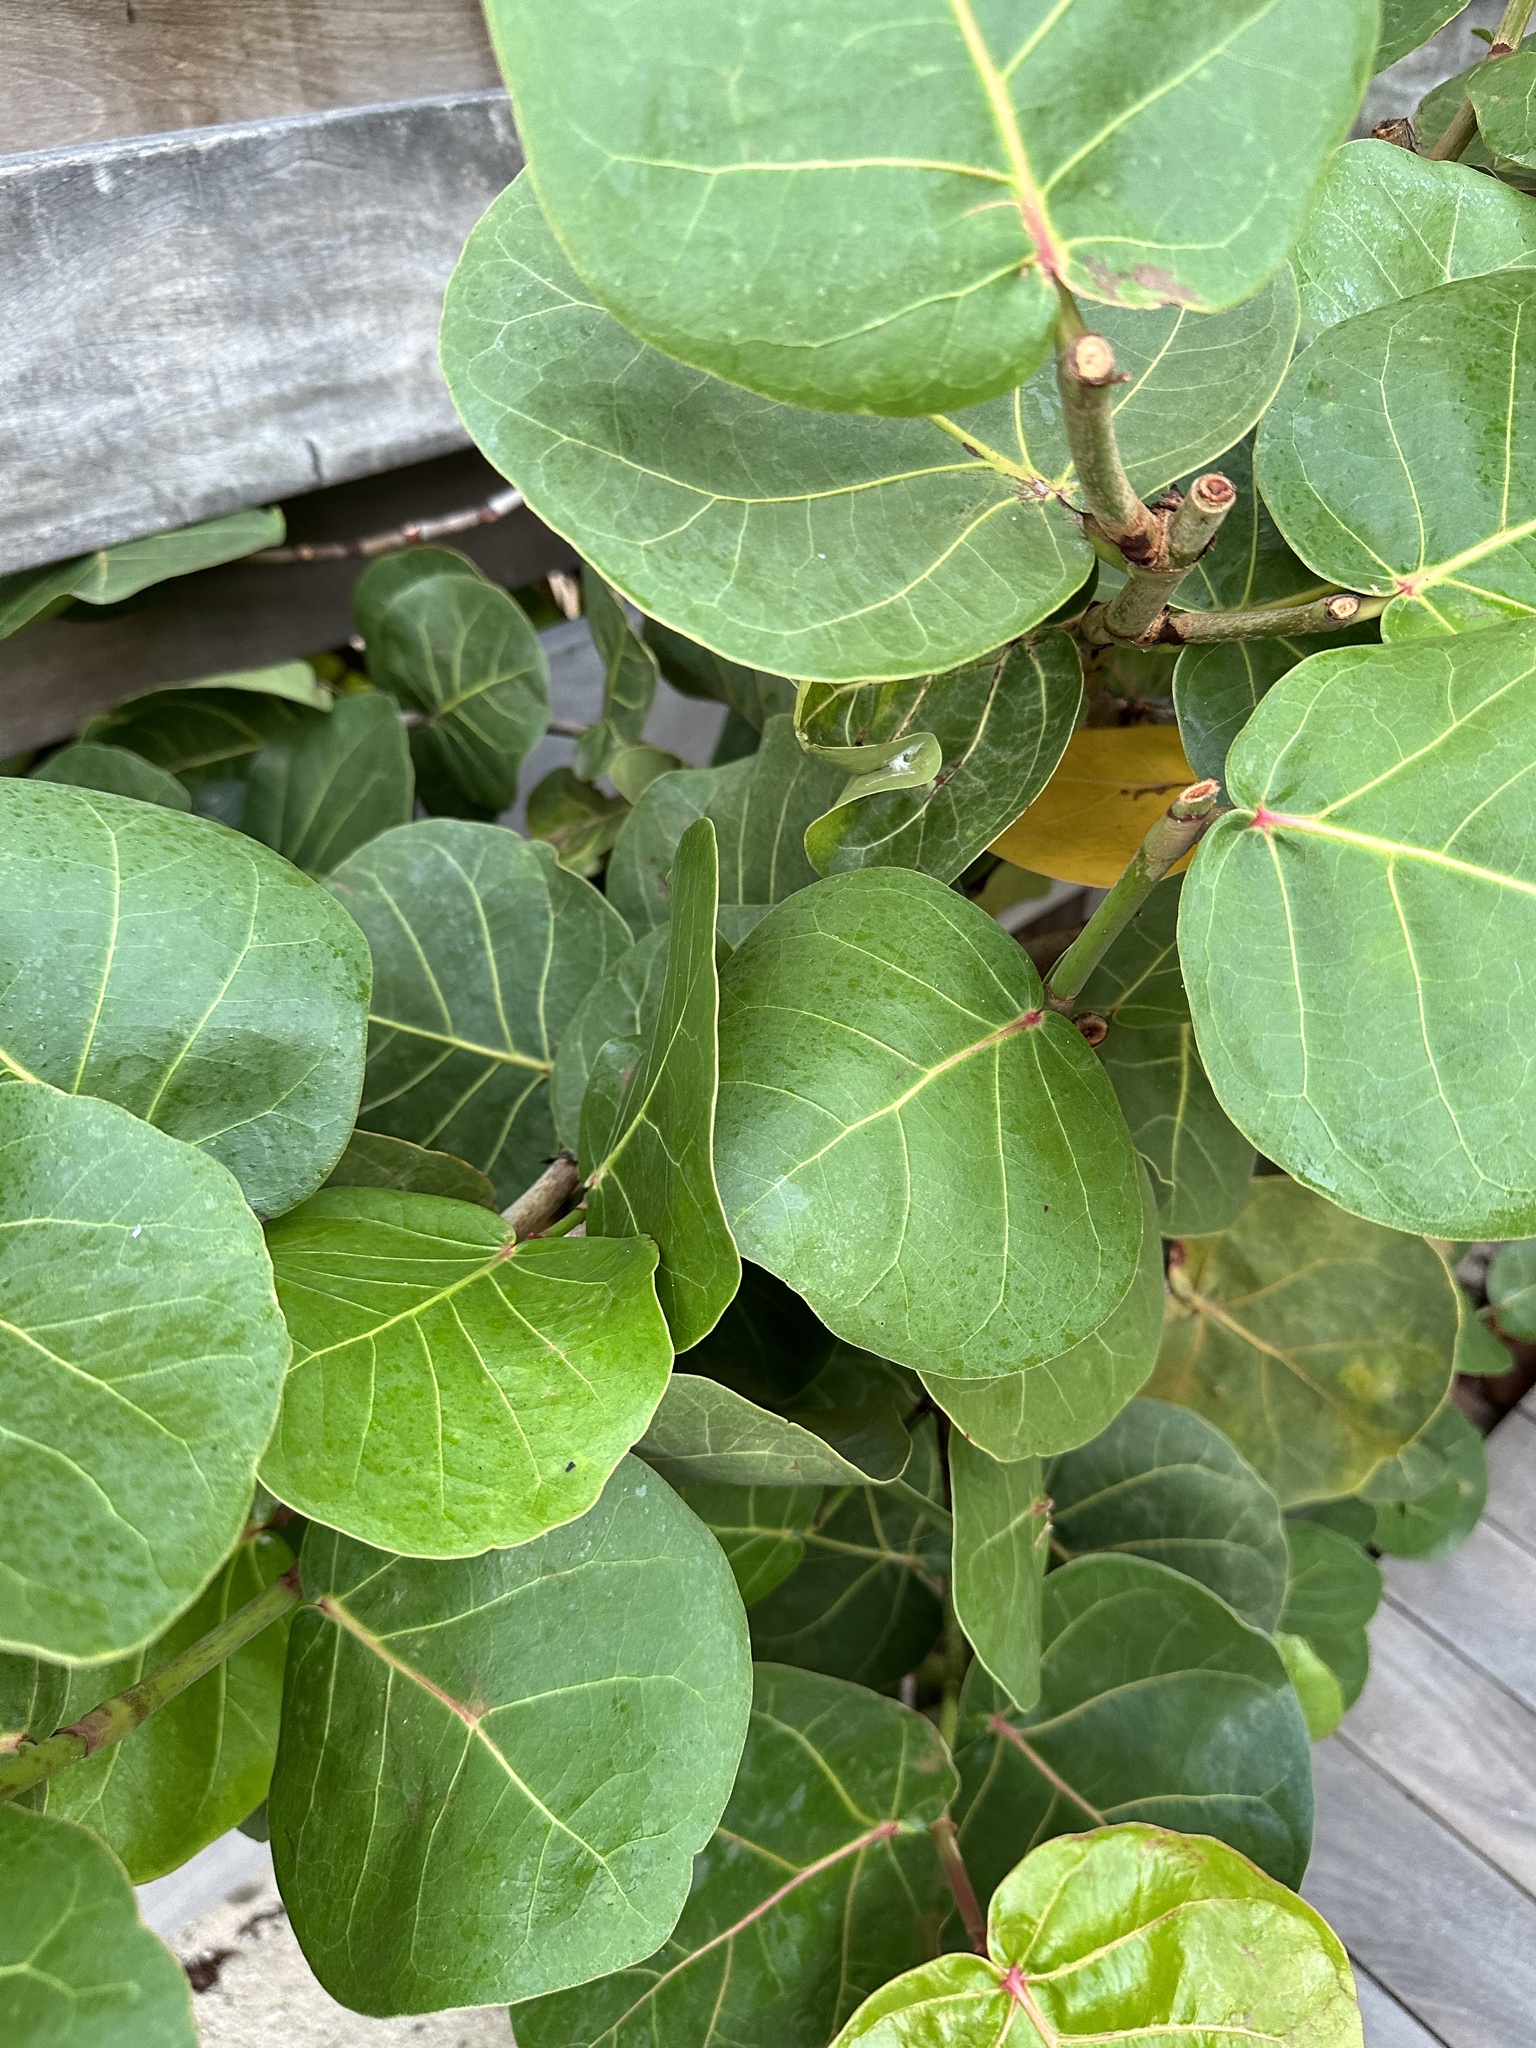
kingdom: Plantae
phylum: Tracheophyta
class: Magnoliopsida
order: Caryophyllales
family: Polygonaceae
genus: Coccoloba
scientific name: Coccoloba uvifera
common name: Seagrape
